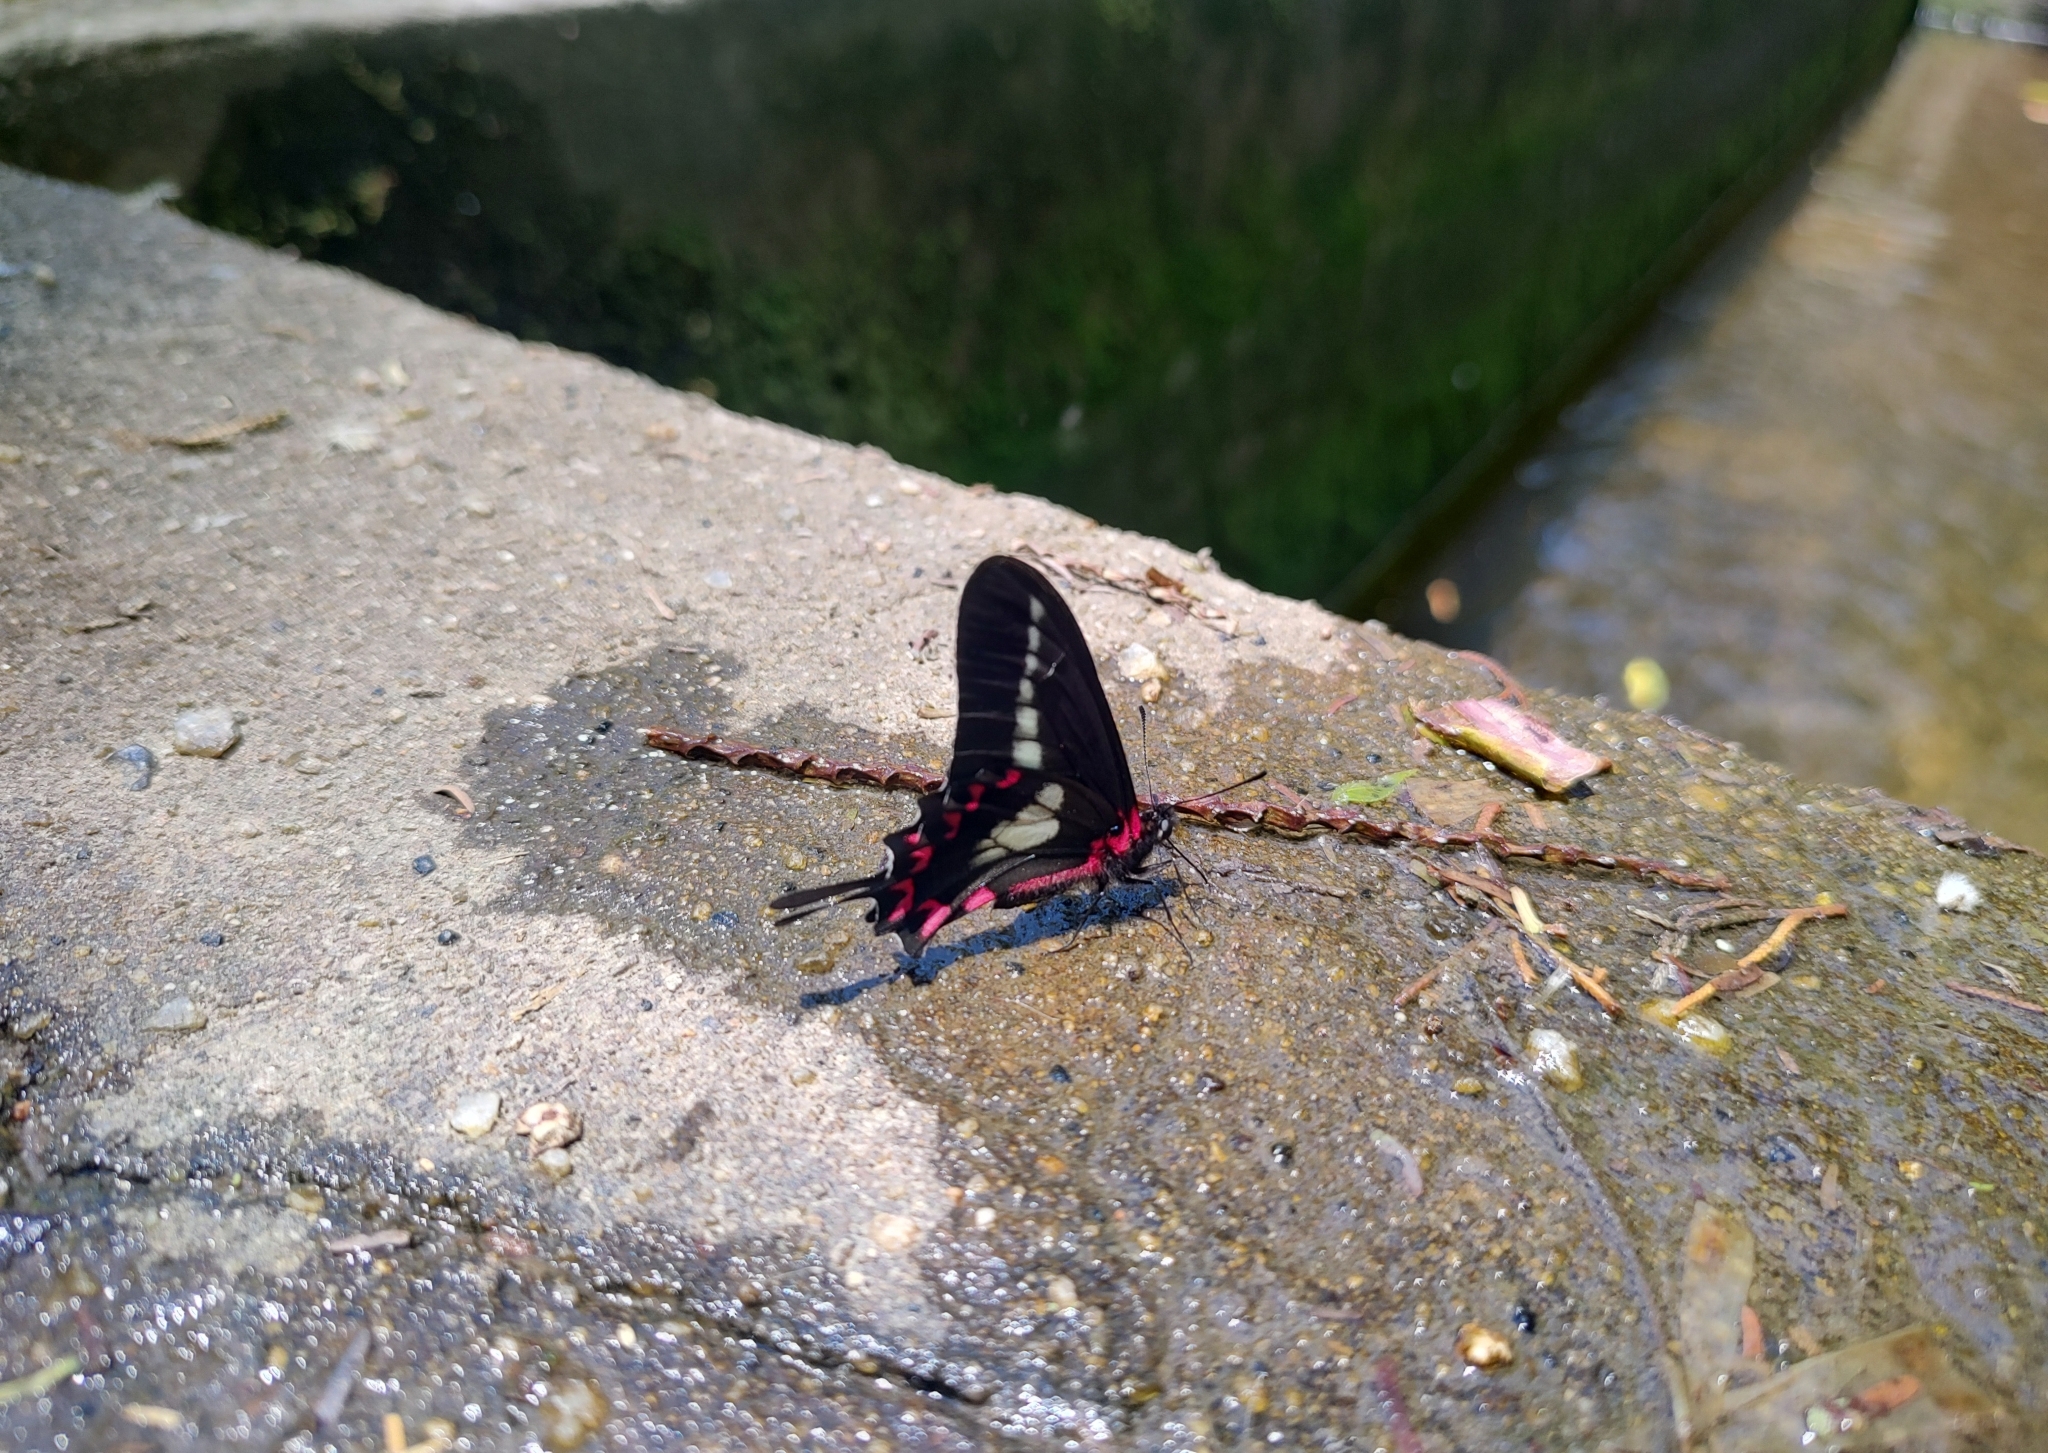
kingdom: Animalia
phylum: Arthropoda
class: Insecta
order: Lepidoptera
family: Papilionidae
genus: Mimoides
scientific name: Mimoides lysithous
